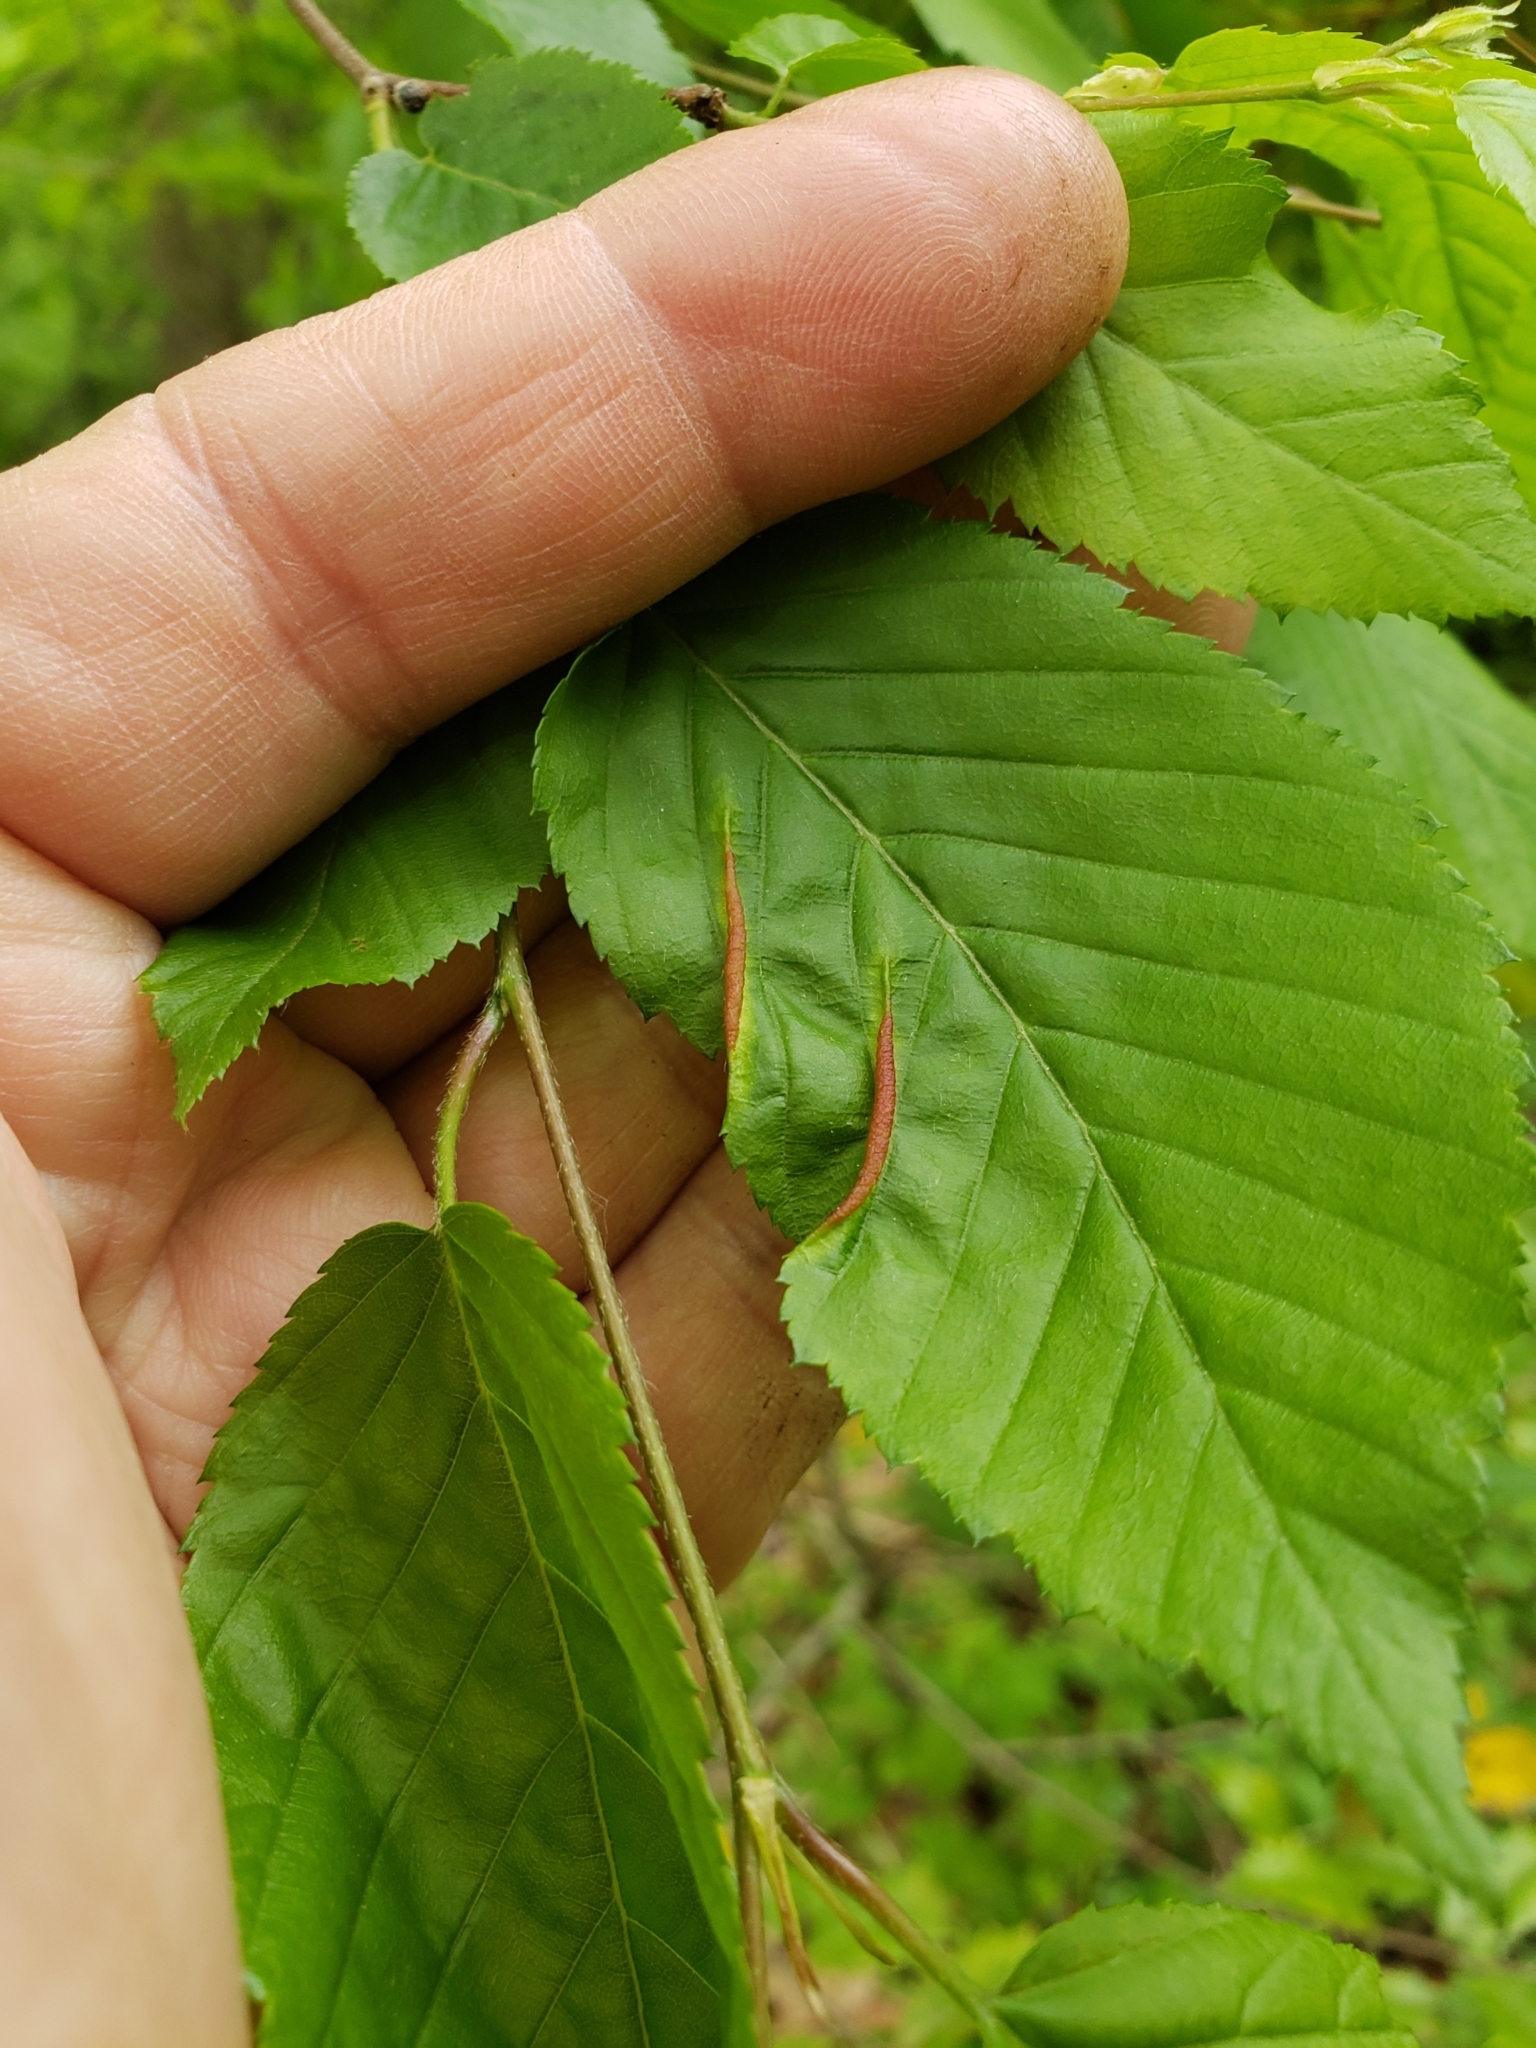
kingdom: Animalia
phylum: Arthropoda
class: Insecta
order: Diptera
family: Cecidomyiidae
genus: Dasineura
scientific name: Dasineura pudibunda
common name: Hornbeam leaf gall midge
